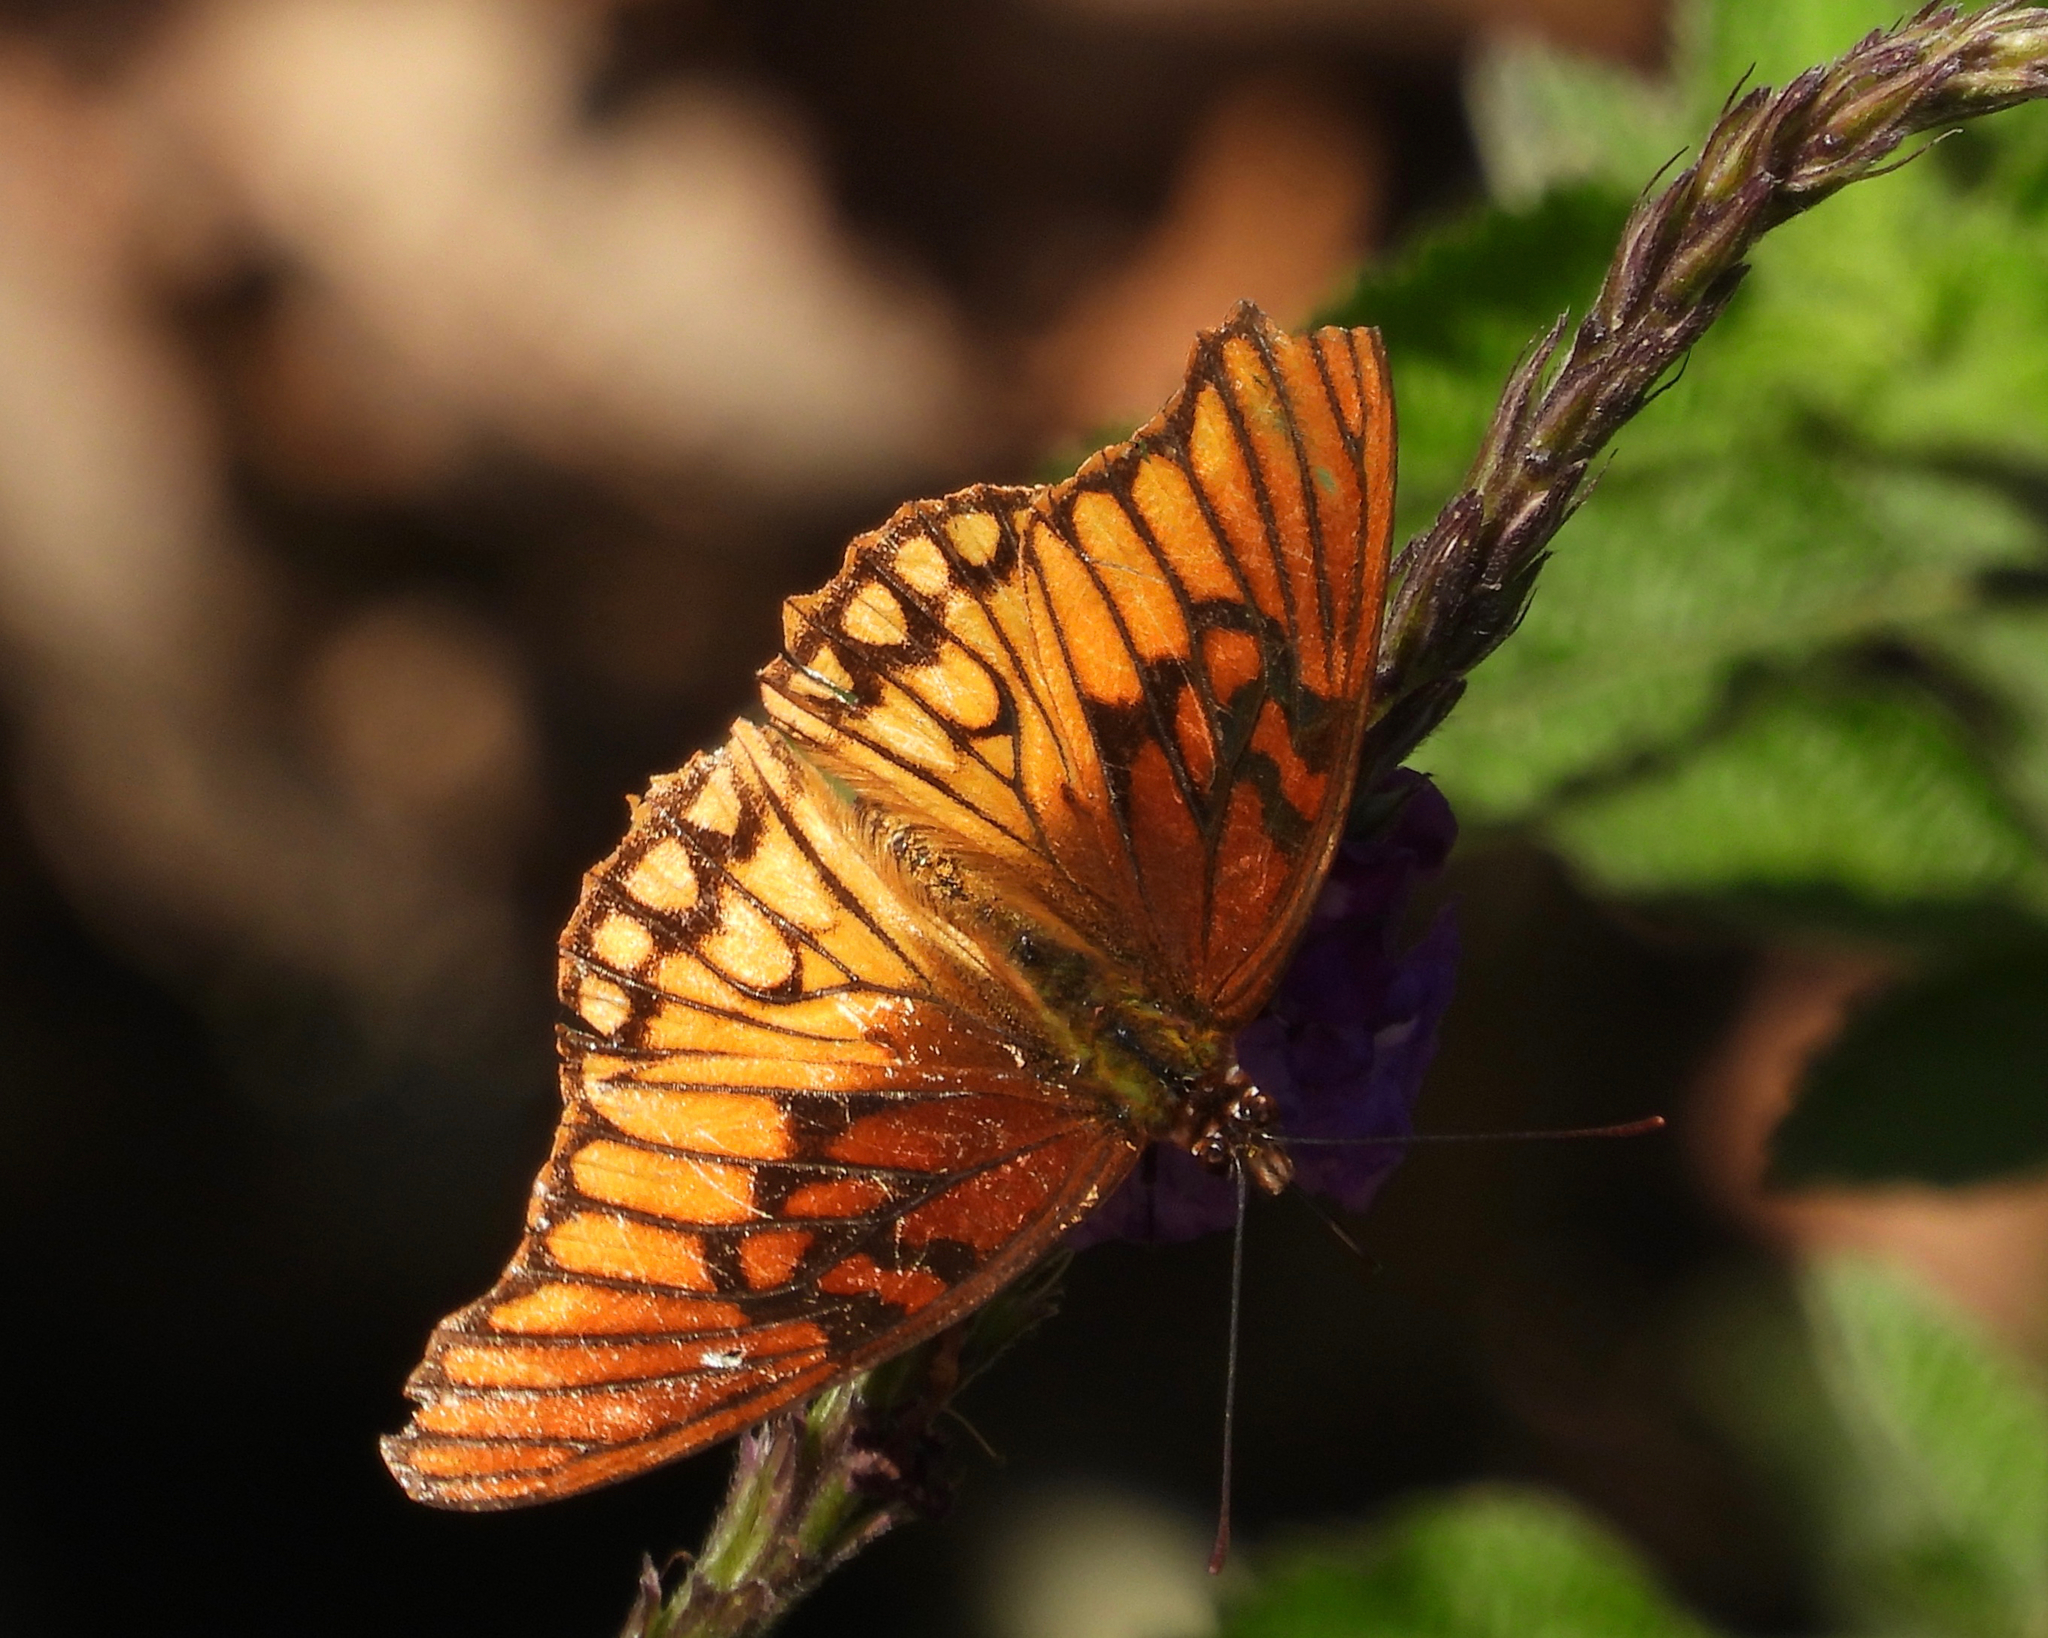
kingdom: Animalia
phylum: Arthropoda
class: Insecta
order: Lepidoptera
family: Nymphalidae
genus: Dione
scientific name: Dione moneta
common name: Mexican silverspot
